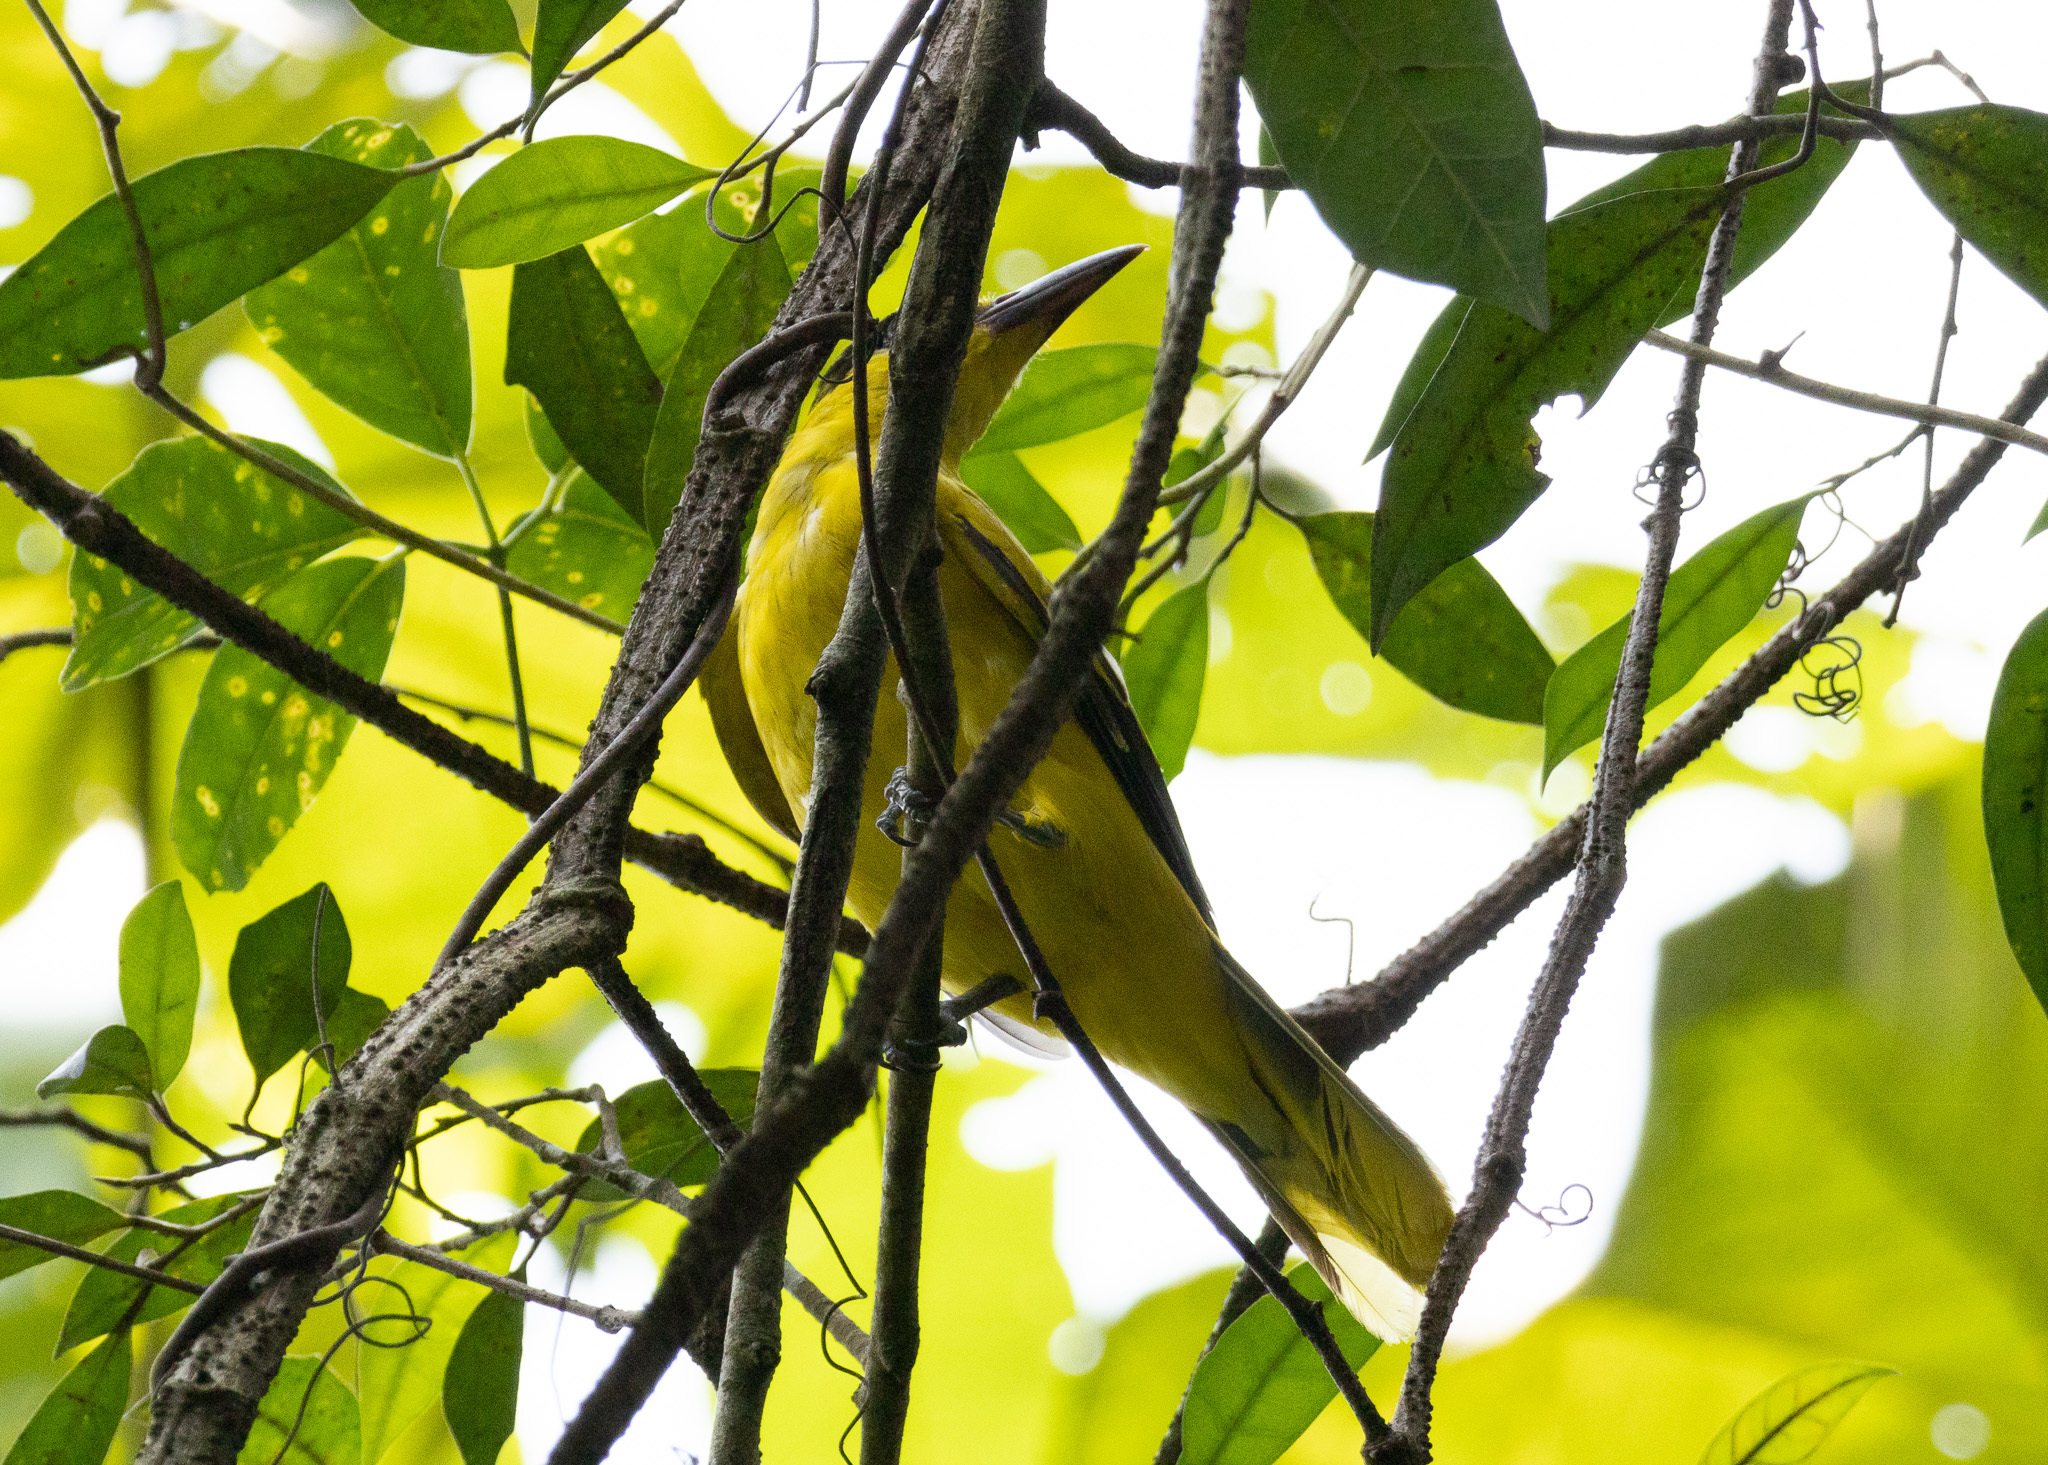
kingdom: Animalia
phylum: Chordata
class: Aves
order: Passeriformes
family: Oriolidae
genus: Oriolus
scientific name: Oriolus chinensis
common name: Black-naped oriole
